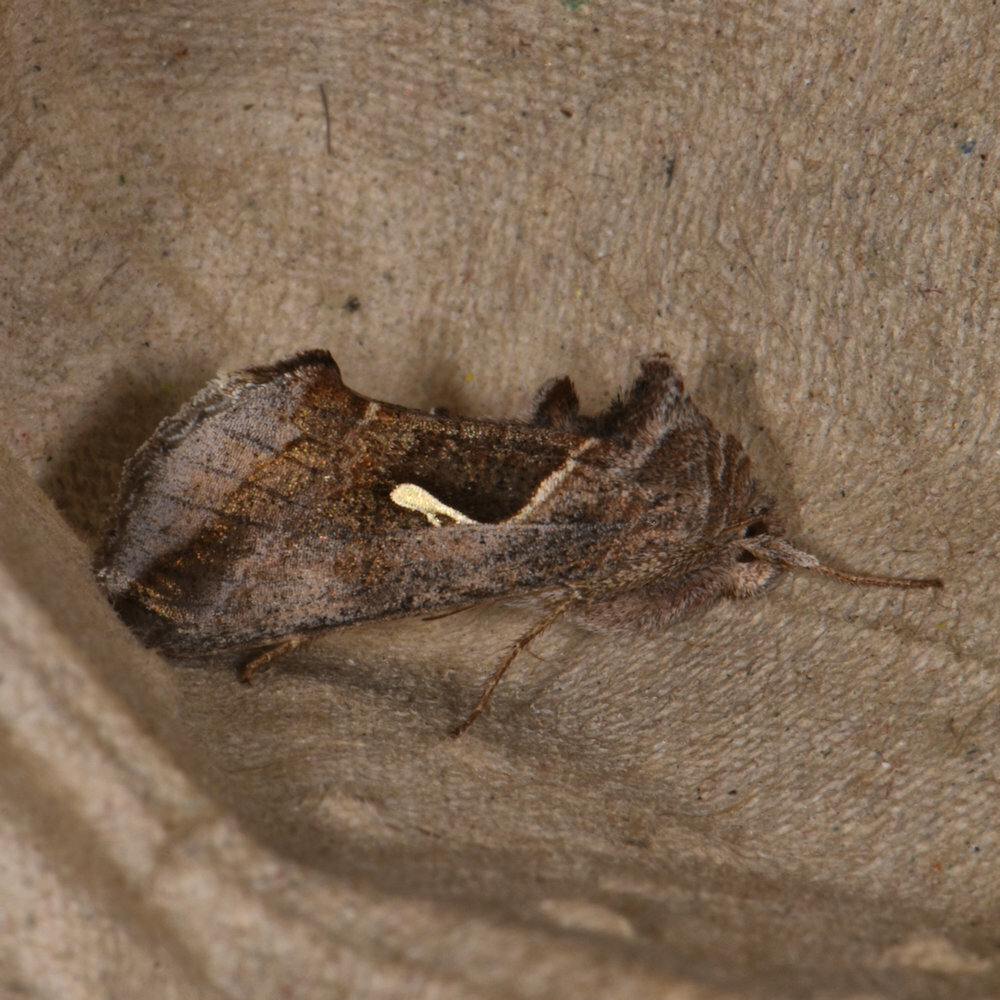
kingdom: Animalia
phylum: Arthropoda
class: Insecta
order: Lepidoptera
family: Noctuidae
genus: Anagrapha
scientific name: Anagrapha falcifera
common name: Celery looper
